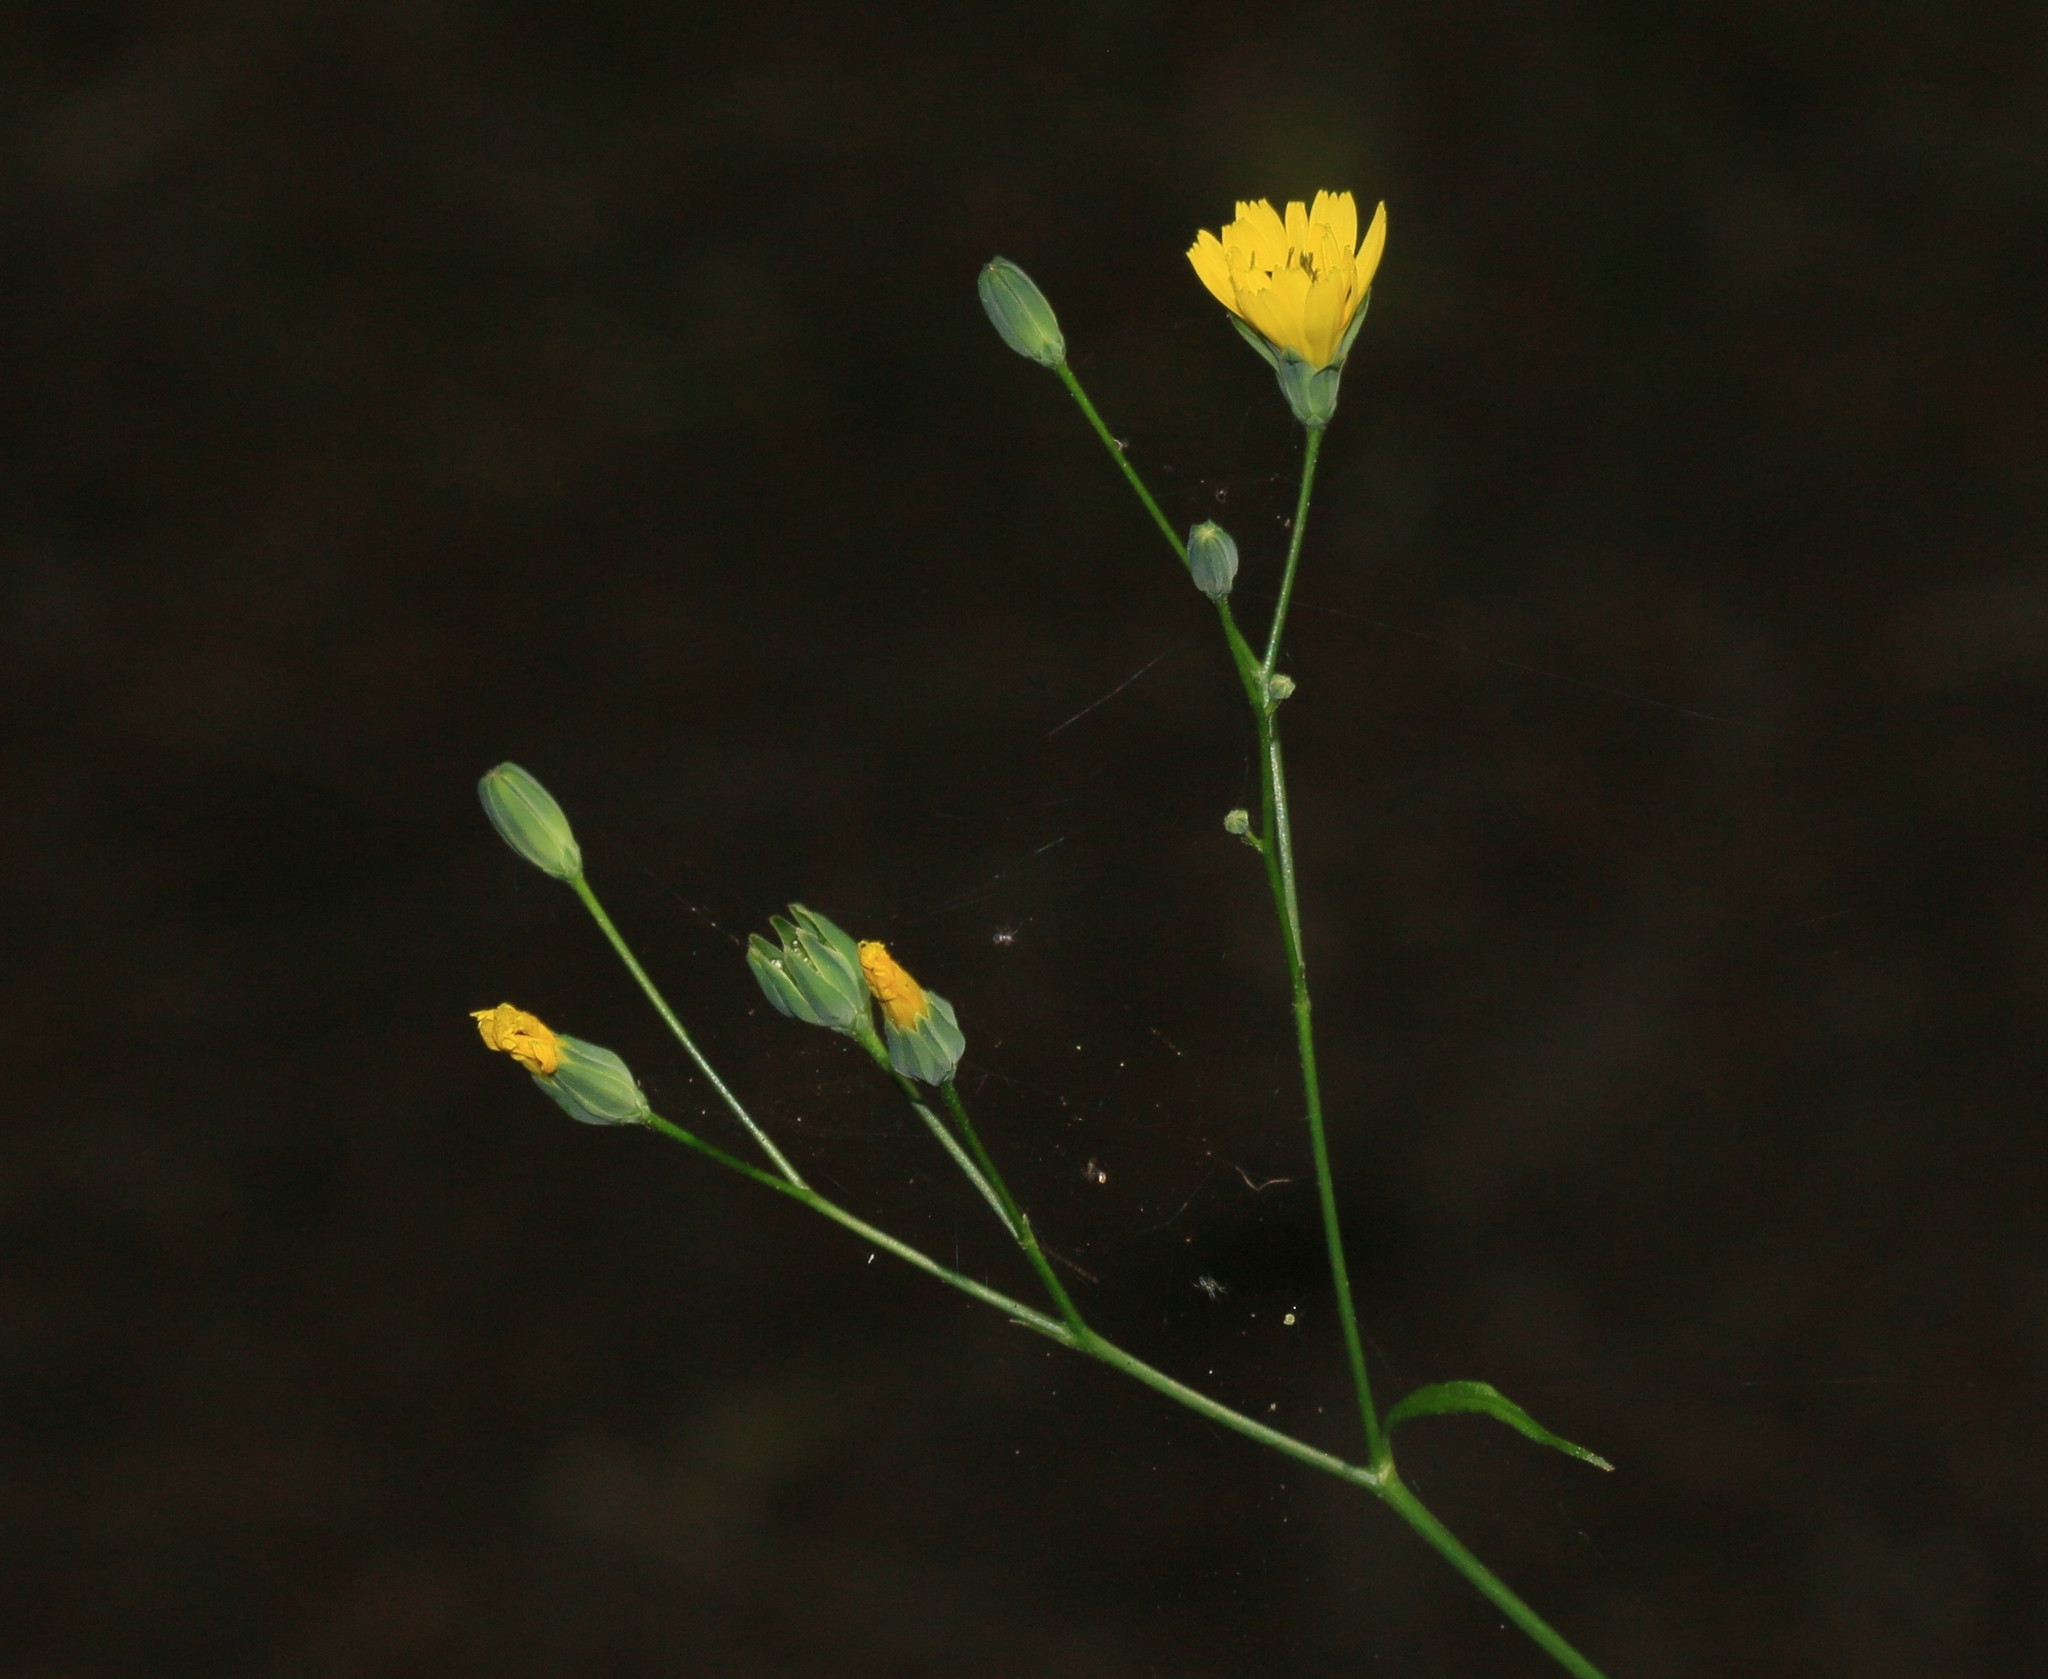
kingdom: Plantae
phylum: Tracheophyta
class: Magnoliopsida
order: Asterales
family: Asteraceae
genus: Lapsana
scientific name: Lapsana communis
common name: Nipplewort
